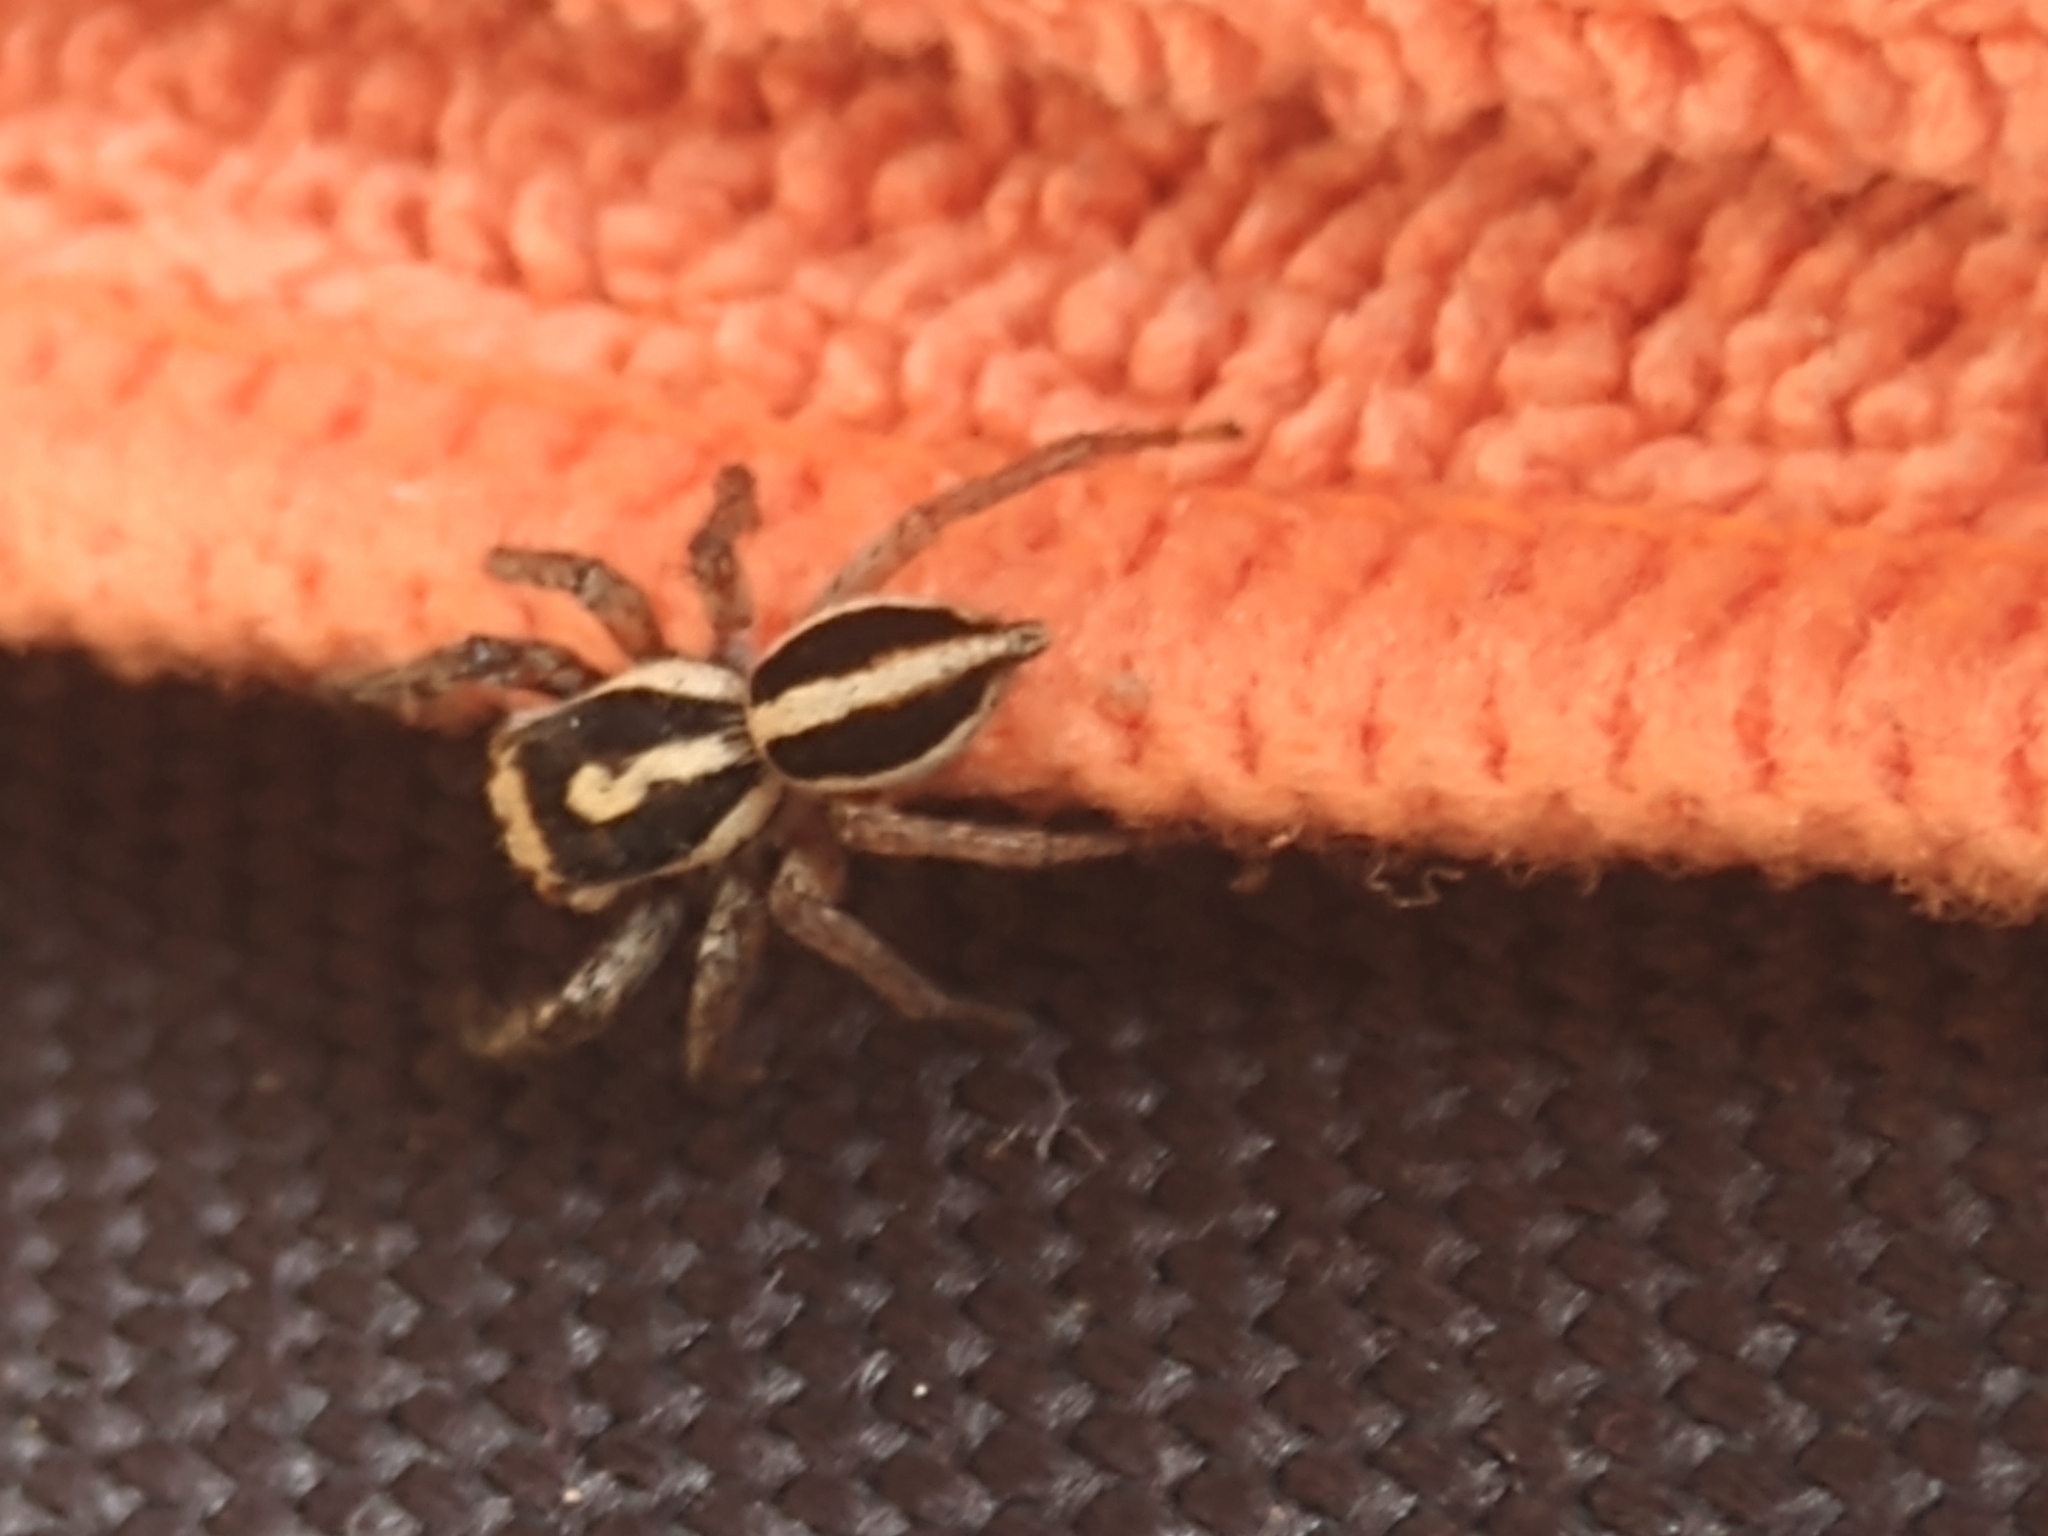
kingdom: Animalia
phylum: Arthropoda
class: Arachnida
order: Araneae
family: Salticidae
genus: Leptofreya
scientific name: Leptofreya ambigua
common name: Jumping spider
